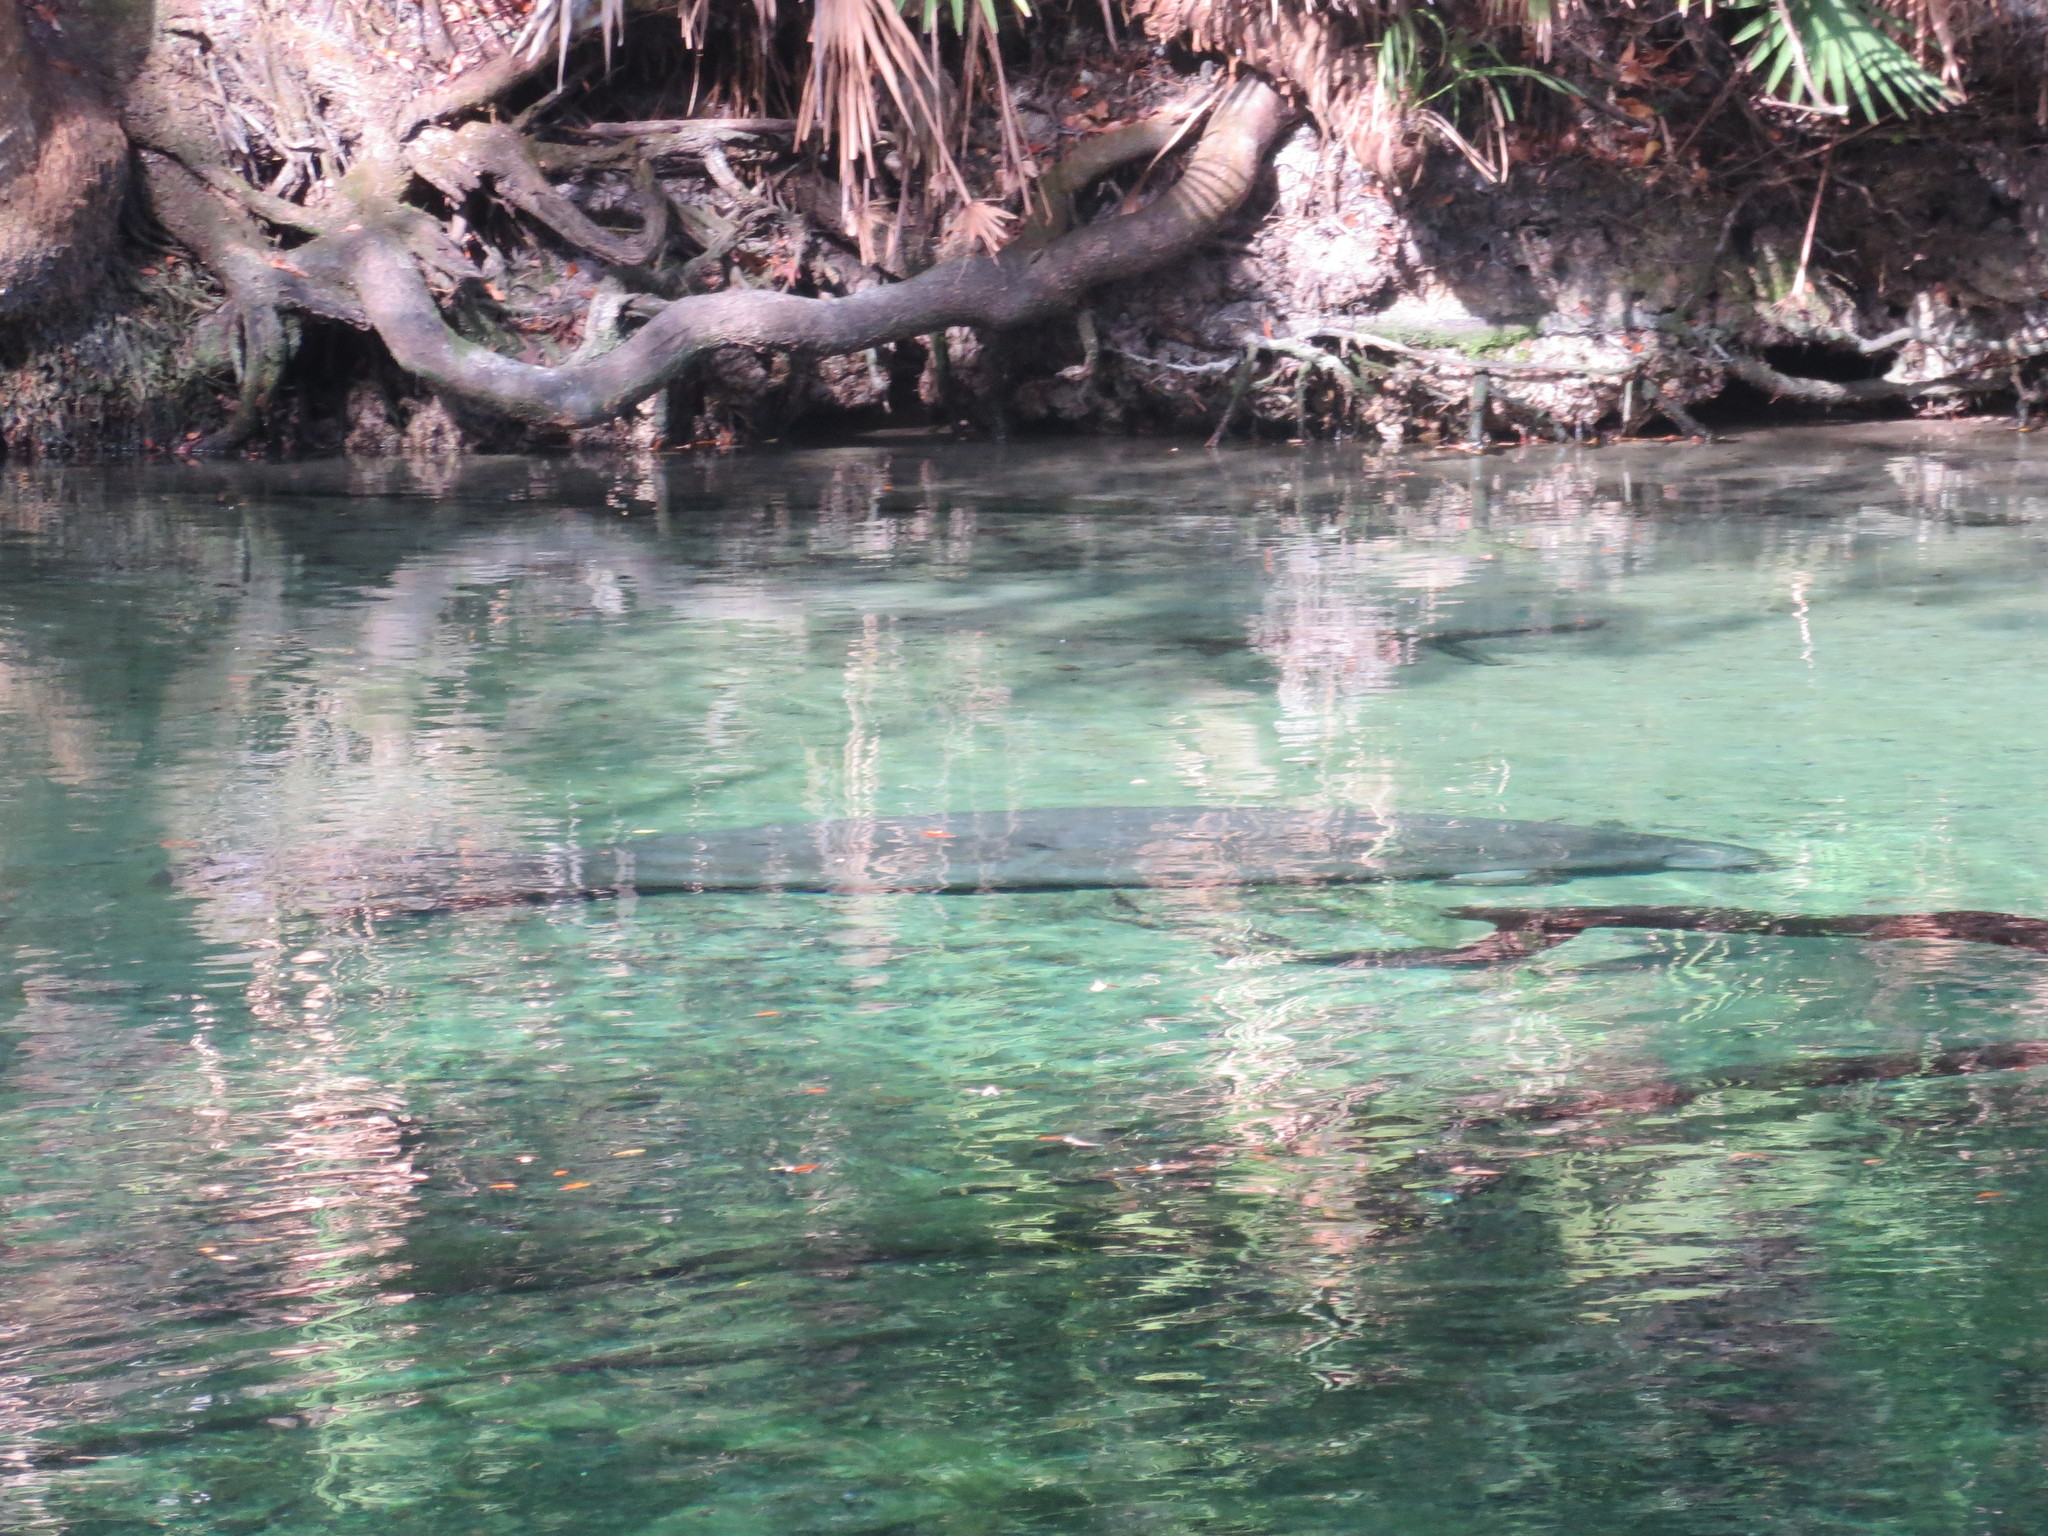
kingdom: Animalia
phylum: Chordata
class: Mammalia
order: Sirenia
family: Trichechidae
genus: Trichechus
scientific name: Trichechus manatus
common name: West indian manatee
